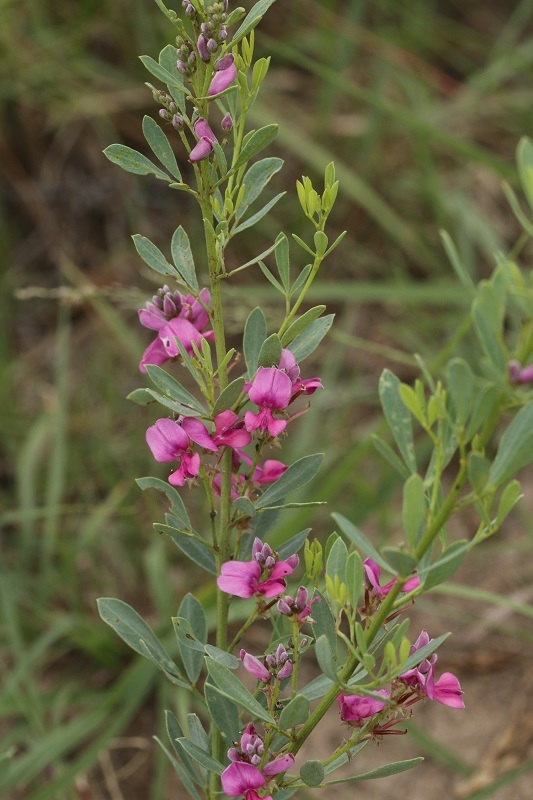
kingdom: Plantae
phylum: Tracheophyta
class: Magnoliopsida
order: Fabales
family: Fabaceae
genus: Indigofera
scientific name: Indigofera denudata
